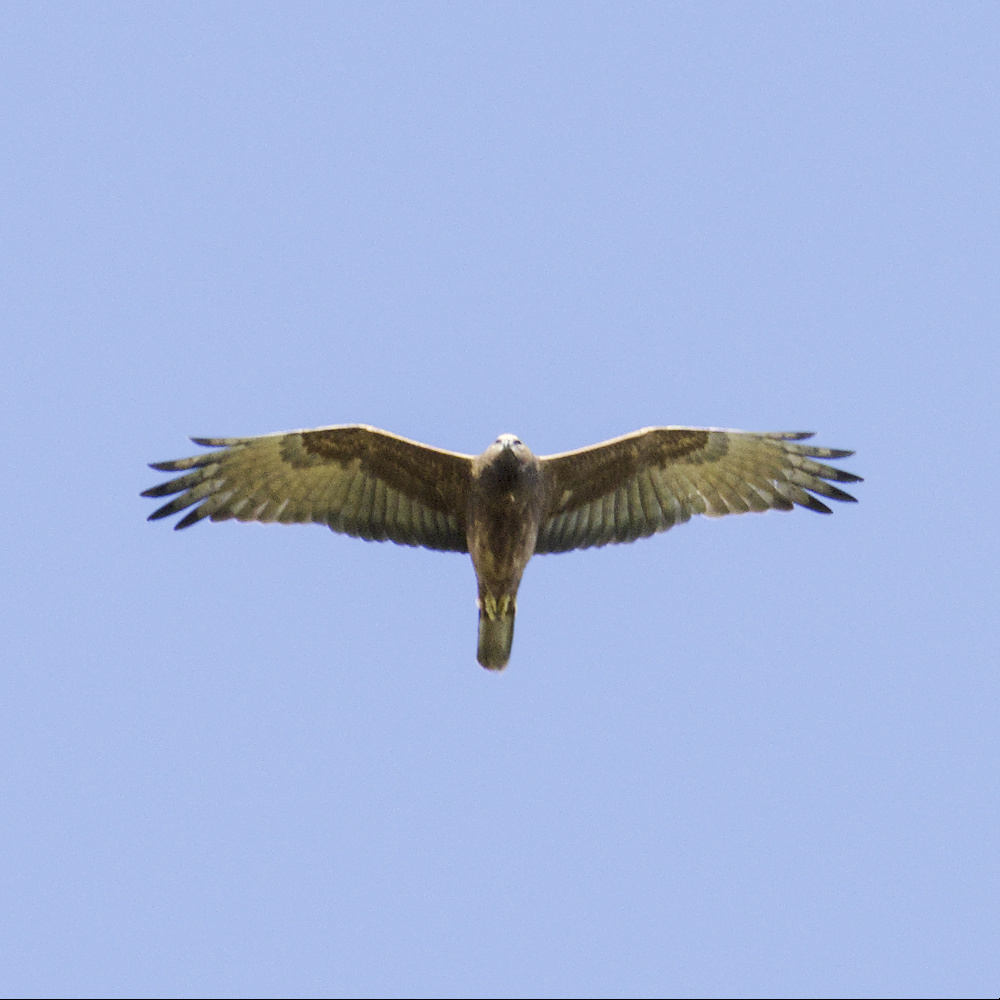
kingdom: Animalia
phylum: Chordata
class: Aves
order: Accipitriformes
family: Accipitridae
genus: Circus
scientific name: Circus approximans
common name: Swamp harrier
